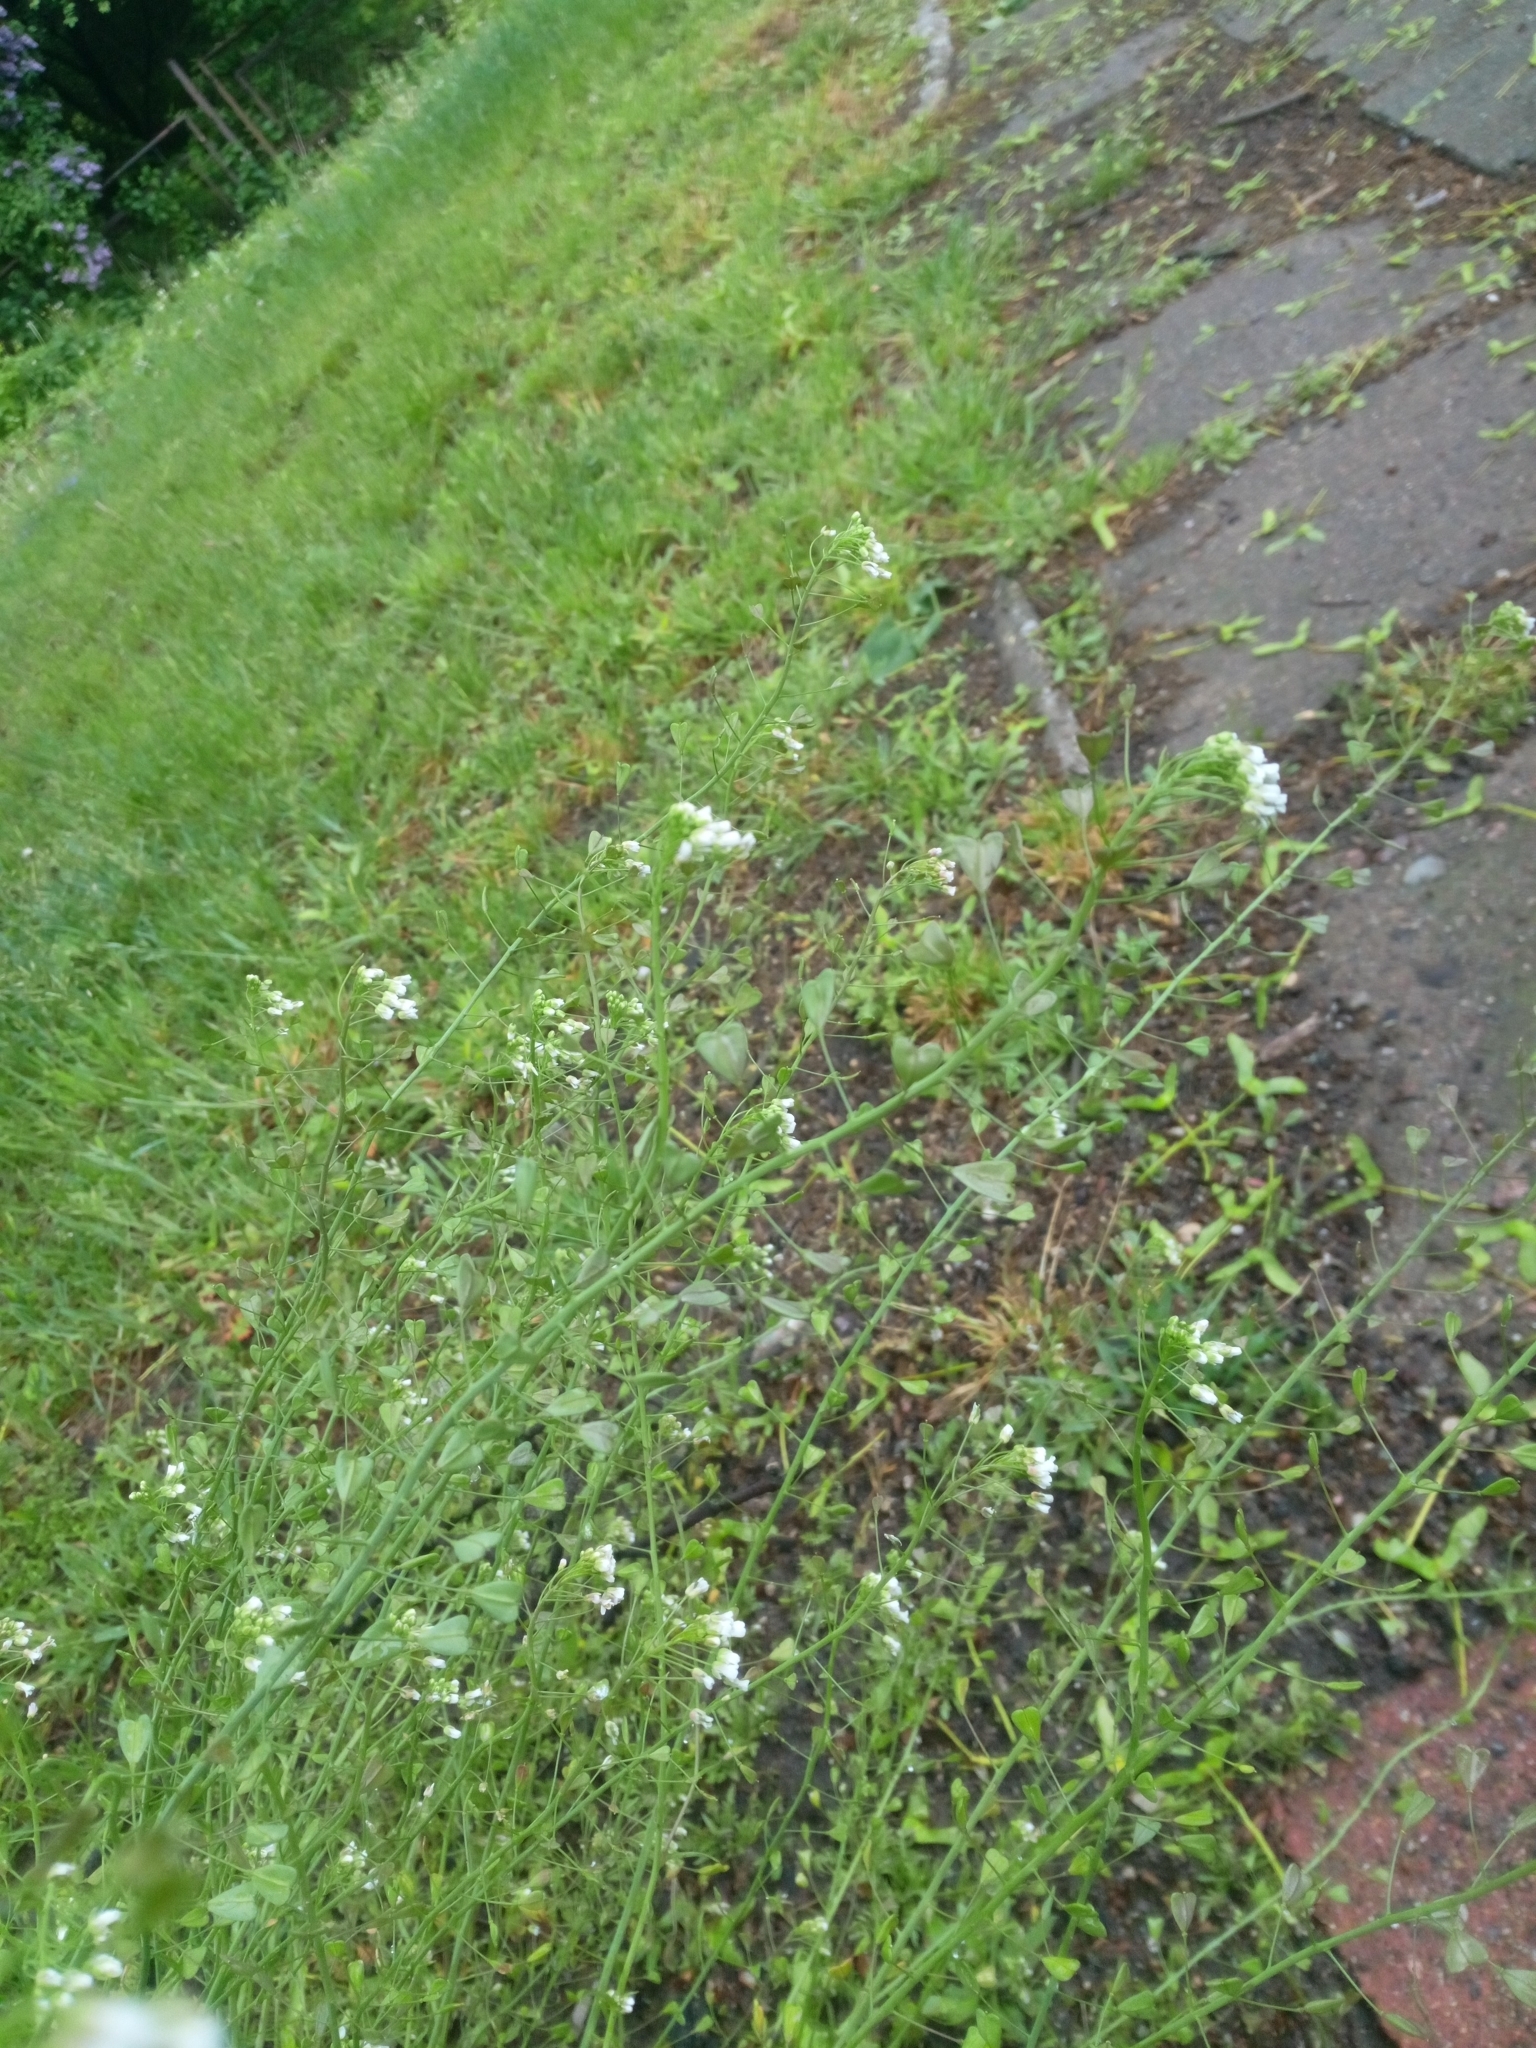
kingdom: Plantae
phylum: Tracheophyta
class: Magnoliopsida
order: Brassicales
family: Brassicaceae
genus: Capsella
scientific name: Capsella bursa-pastoris
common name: Shepherd's purse
